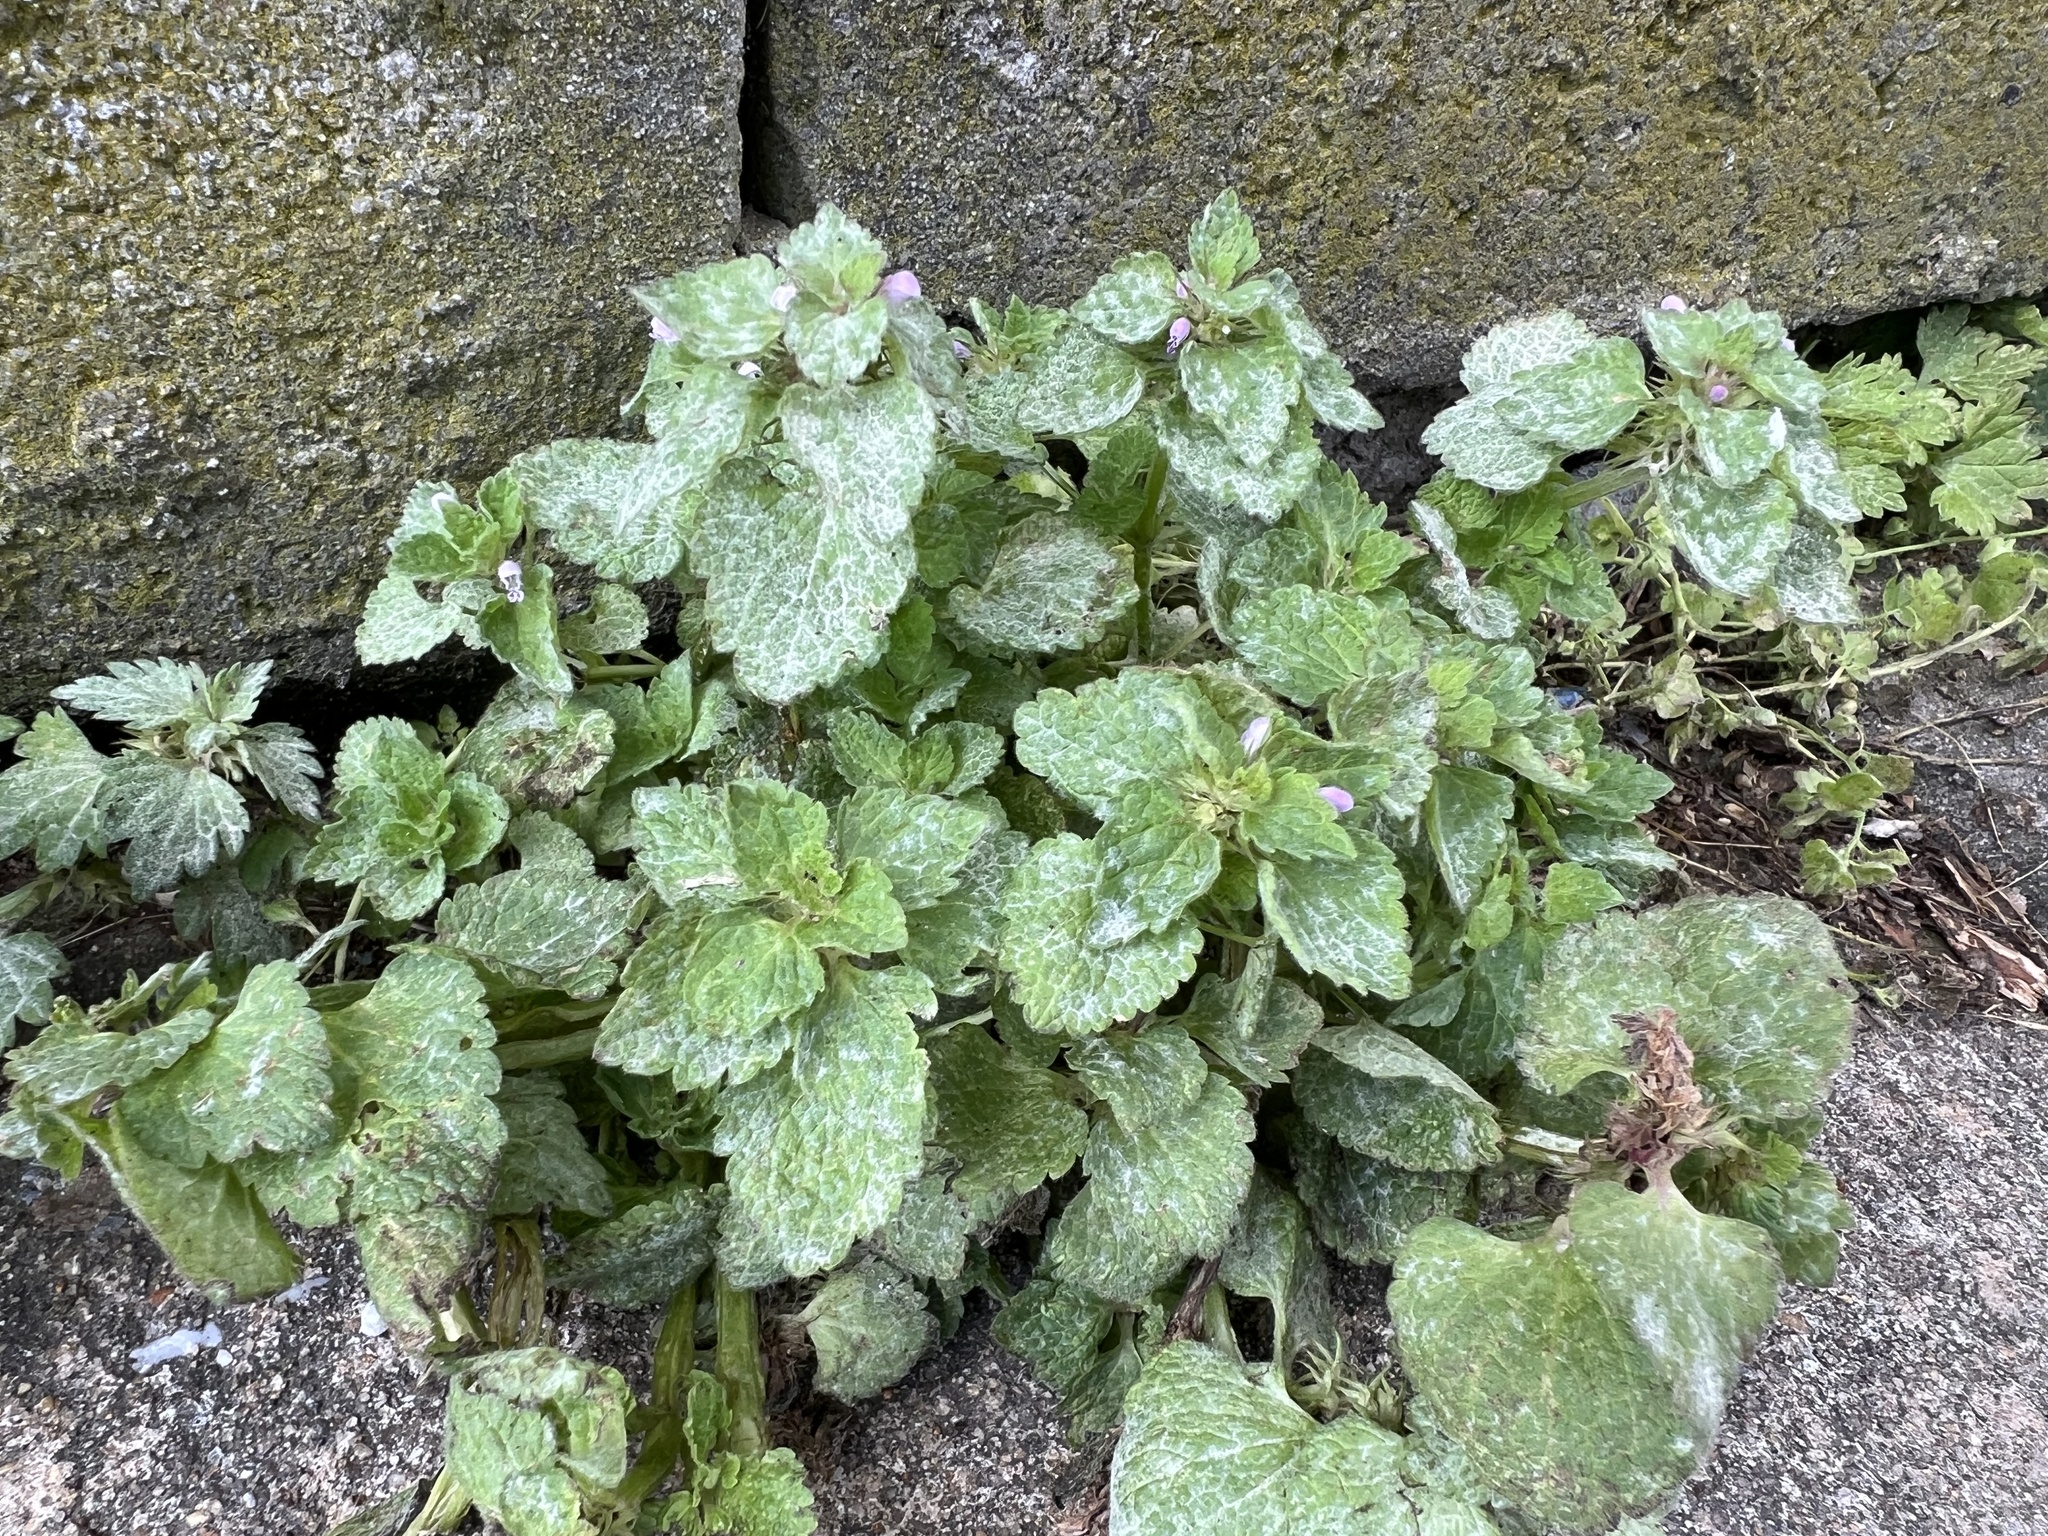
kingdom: Plantae
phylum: Tracheophyta
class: Magnoliopsida
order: Lamiales
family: Lamiaceae
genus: Lamium
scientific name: Lamium purpureum
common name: Red dead-nettle
